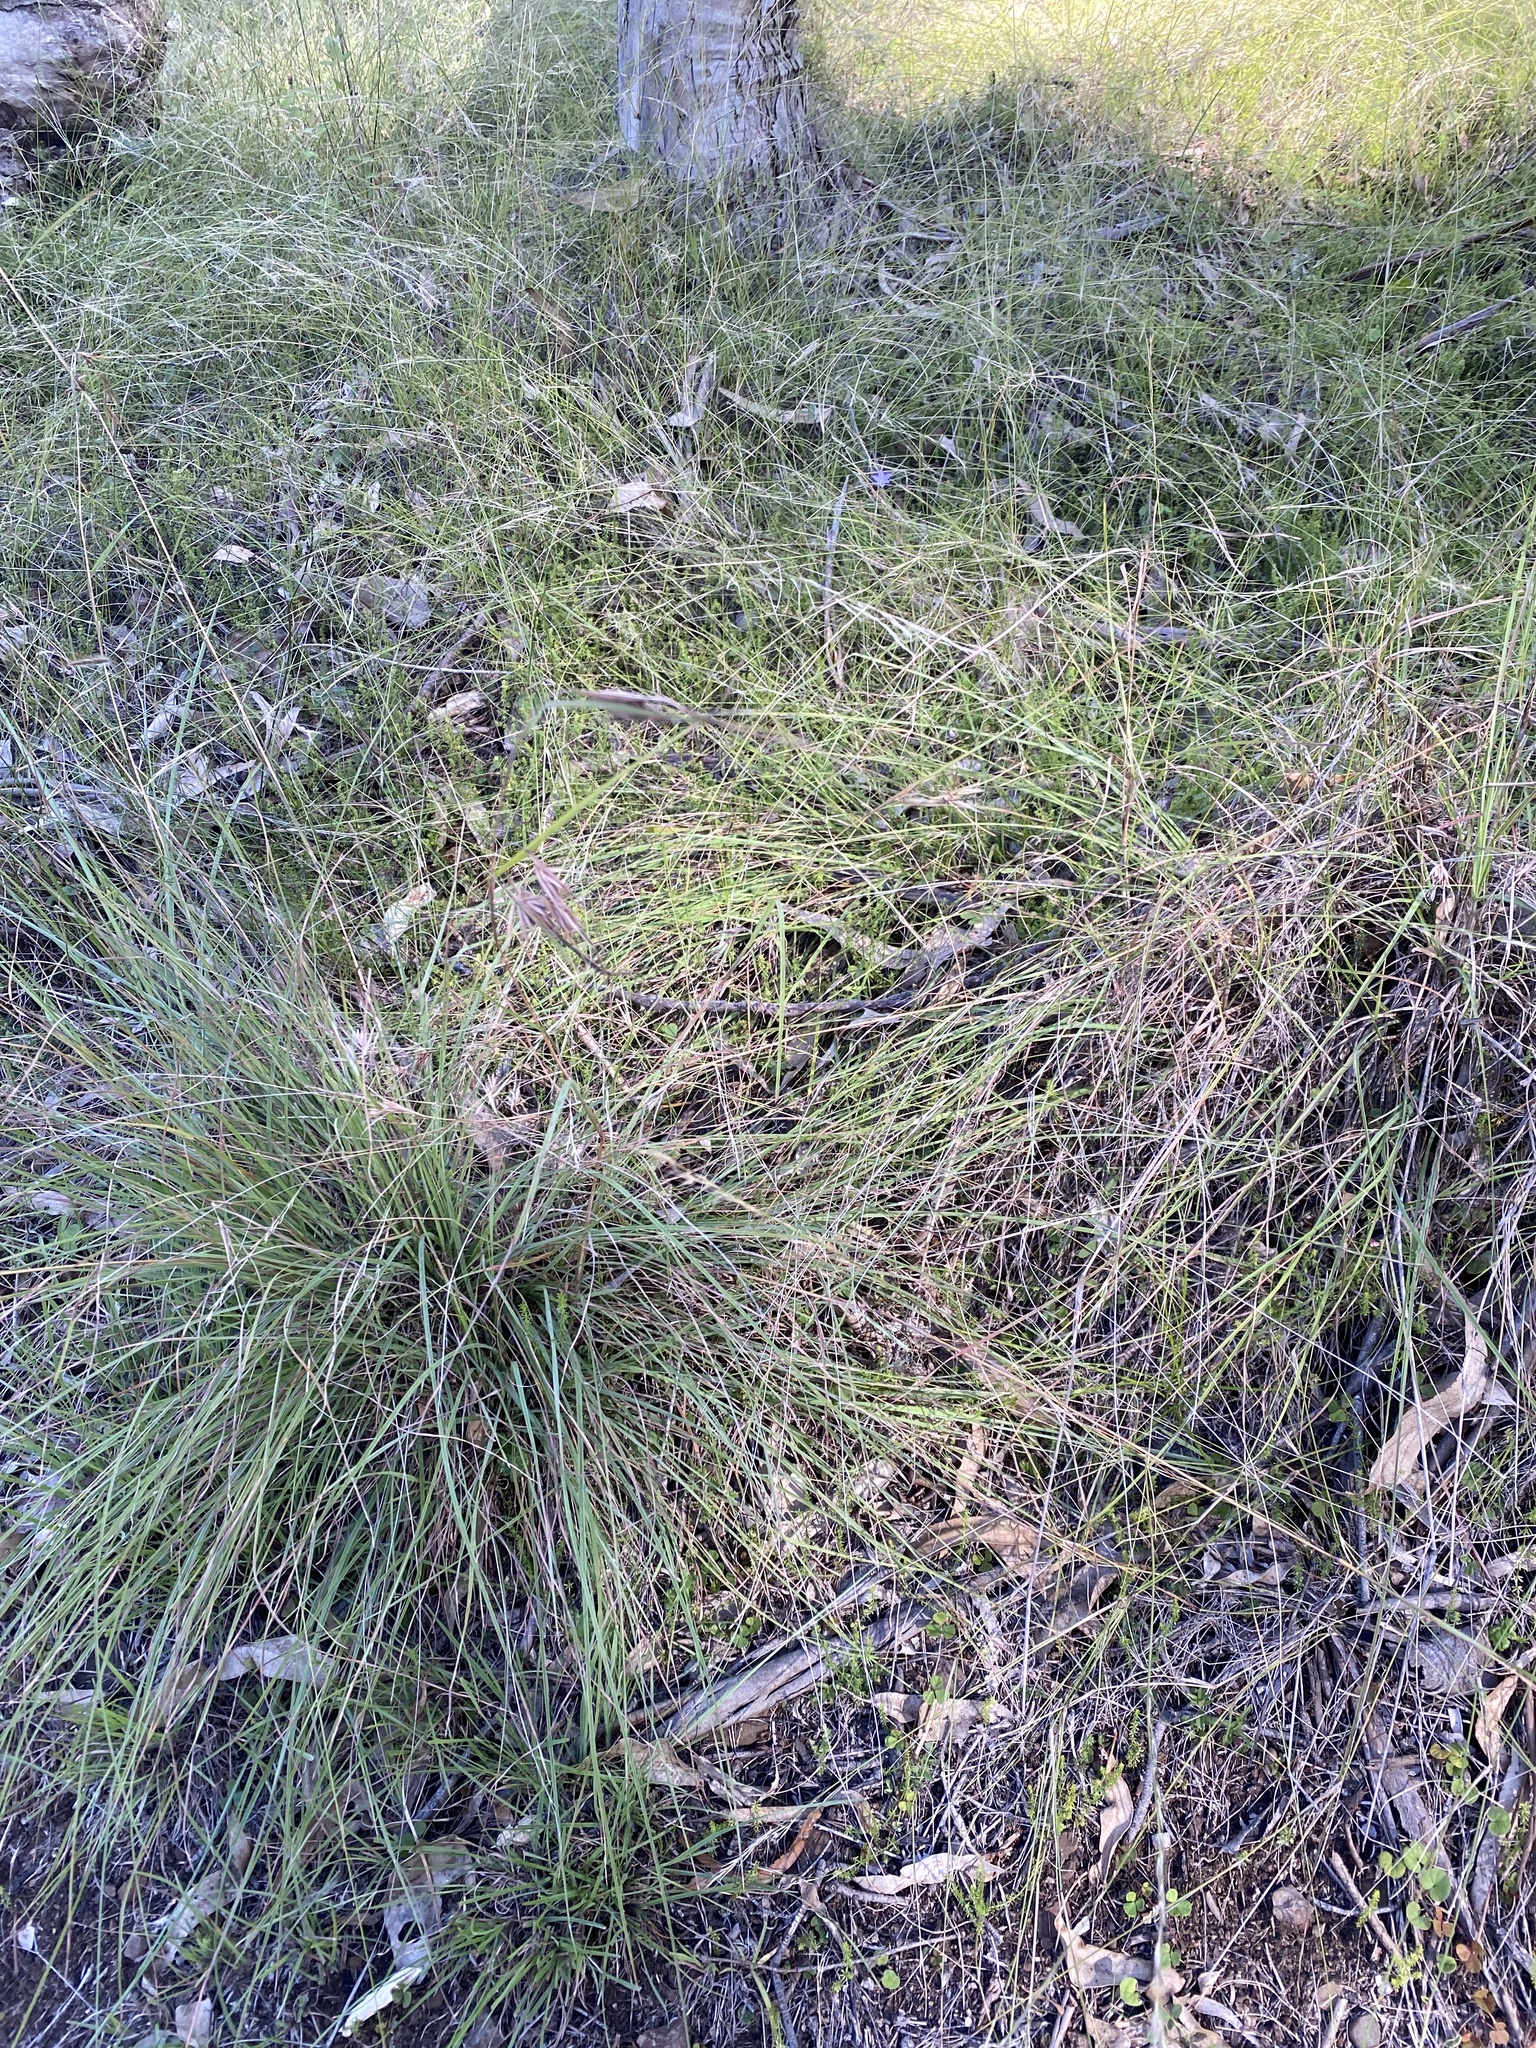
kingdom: Plantae
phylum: Tracheophyta
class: Liliopsida
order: Poales
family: Poaceae
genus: Themeda
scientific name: Themeda triandra
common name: Kangaroo grass
